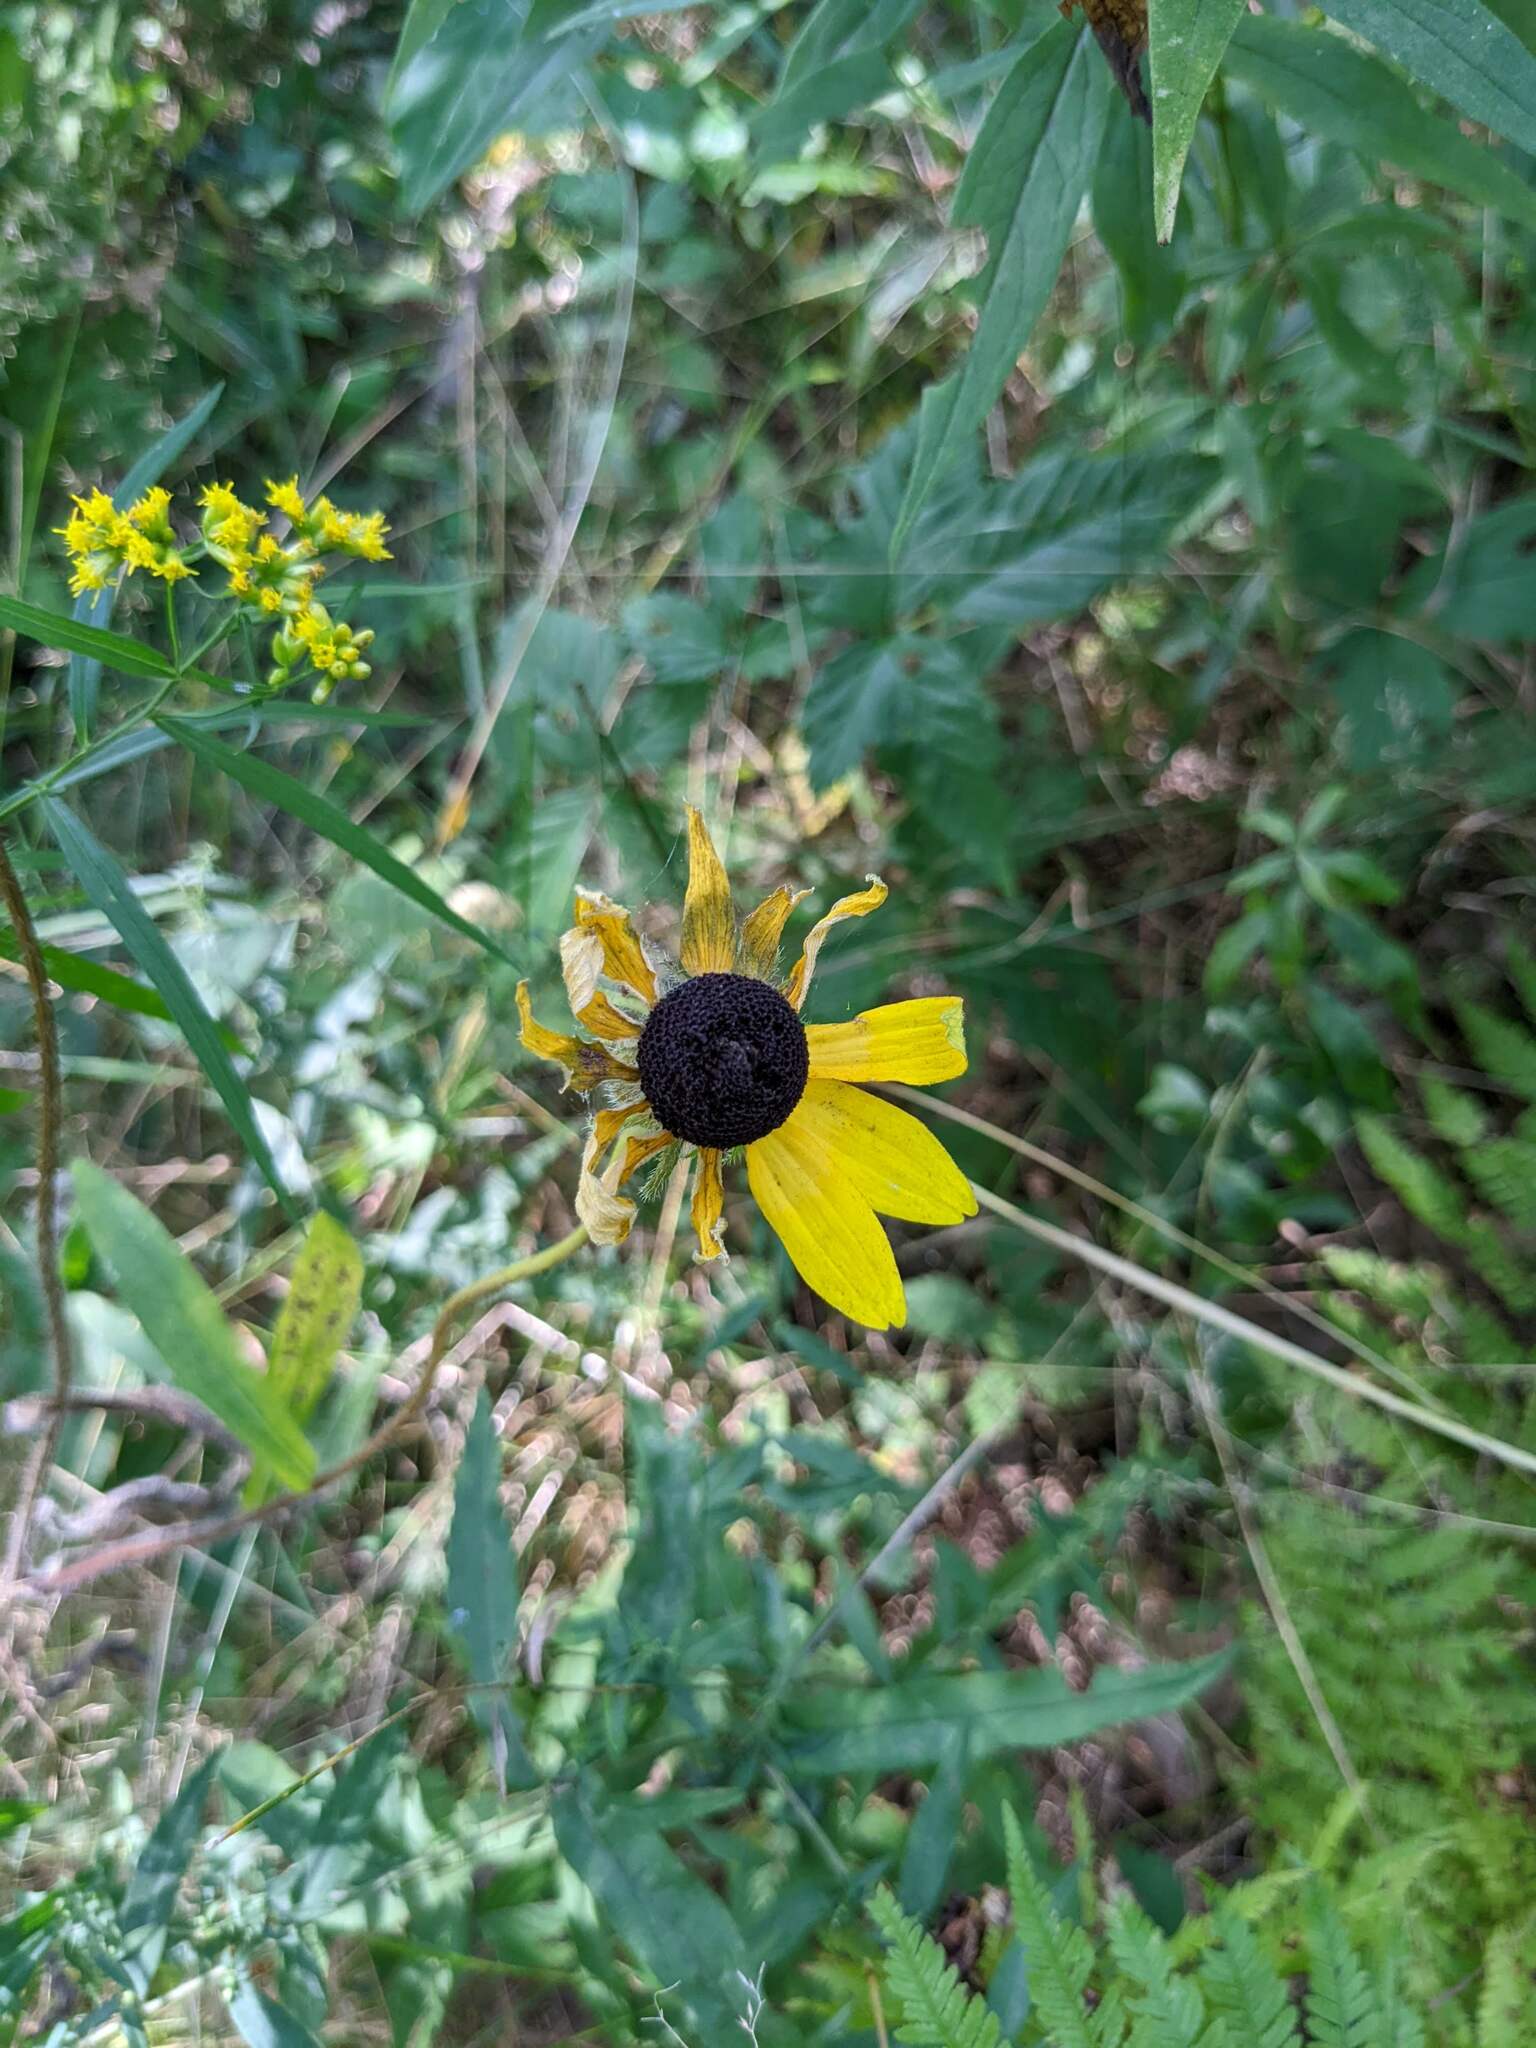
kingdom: Plantae
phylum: Tracheophyta
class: Magnoliopsida
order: Asterales
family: Asteraceae
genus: Rudbeckia
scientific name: Rudbeckia hirta
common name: Black-eyed-susan
